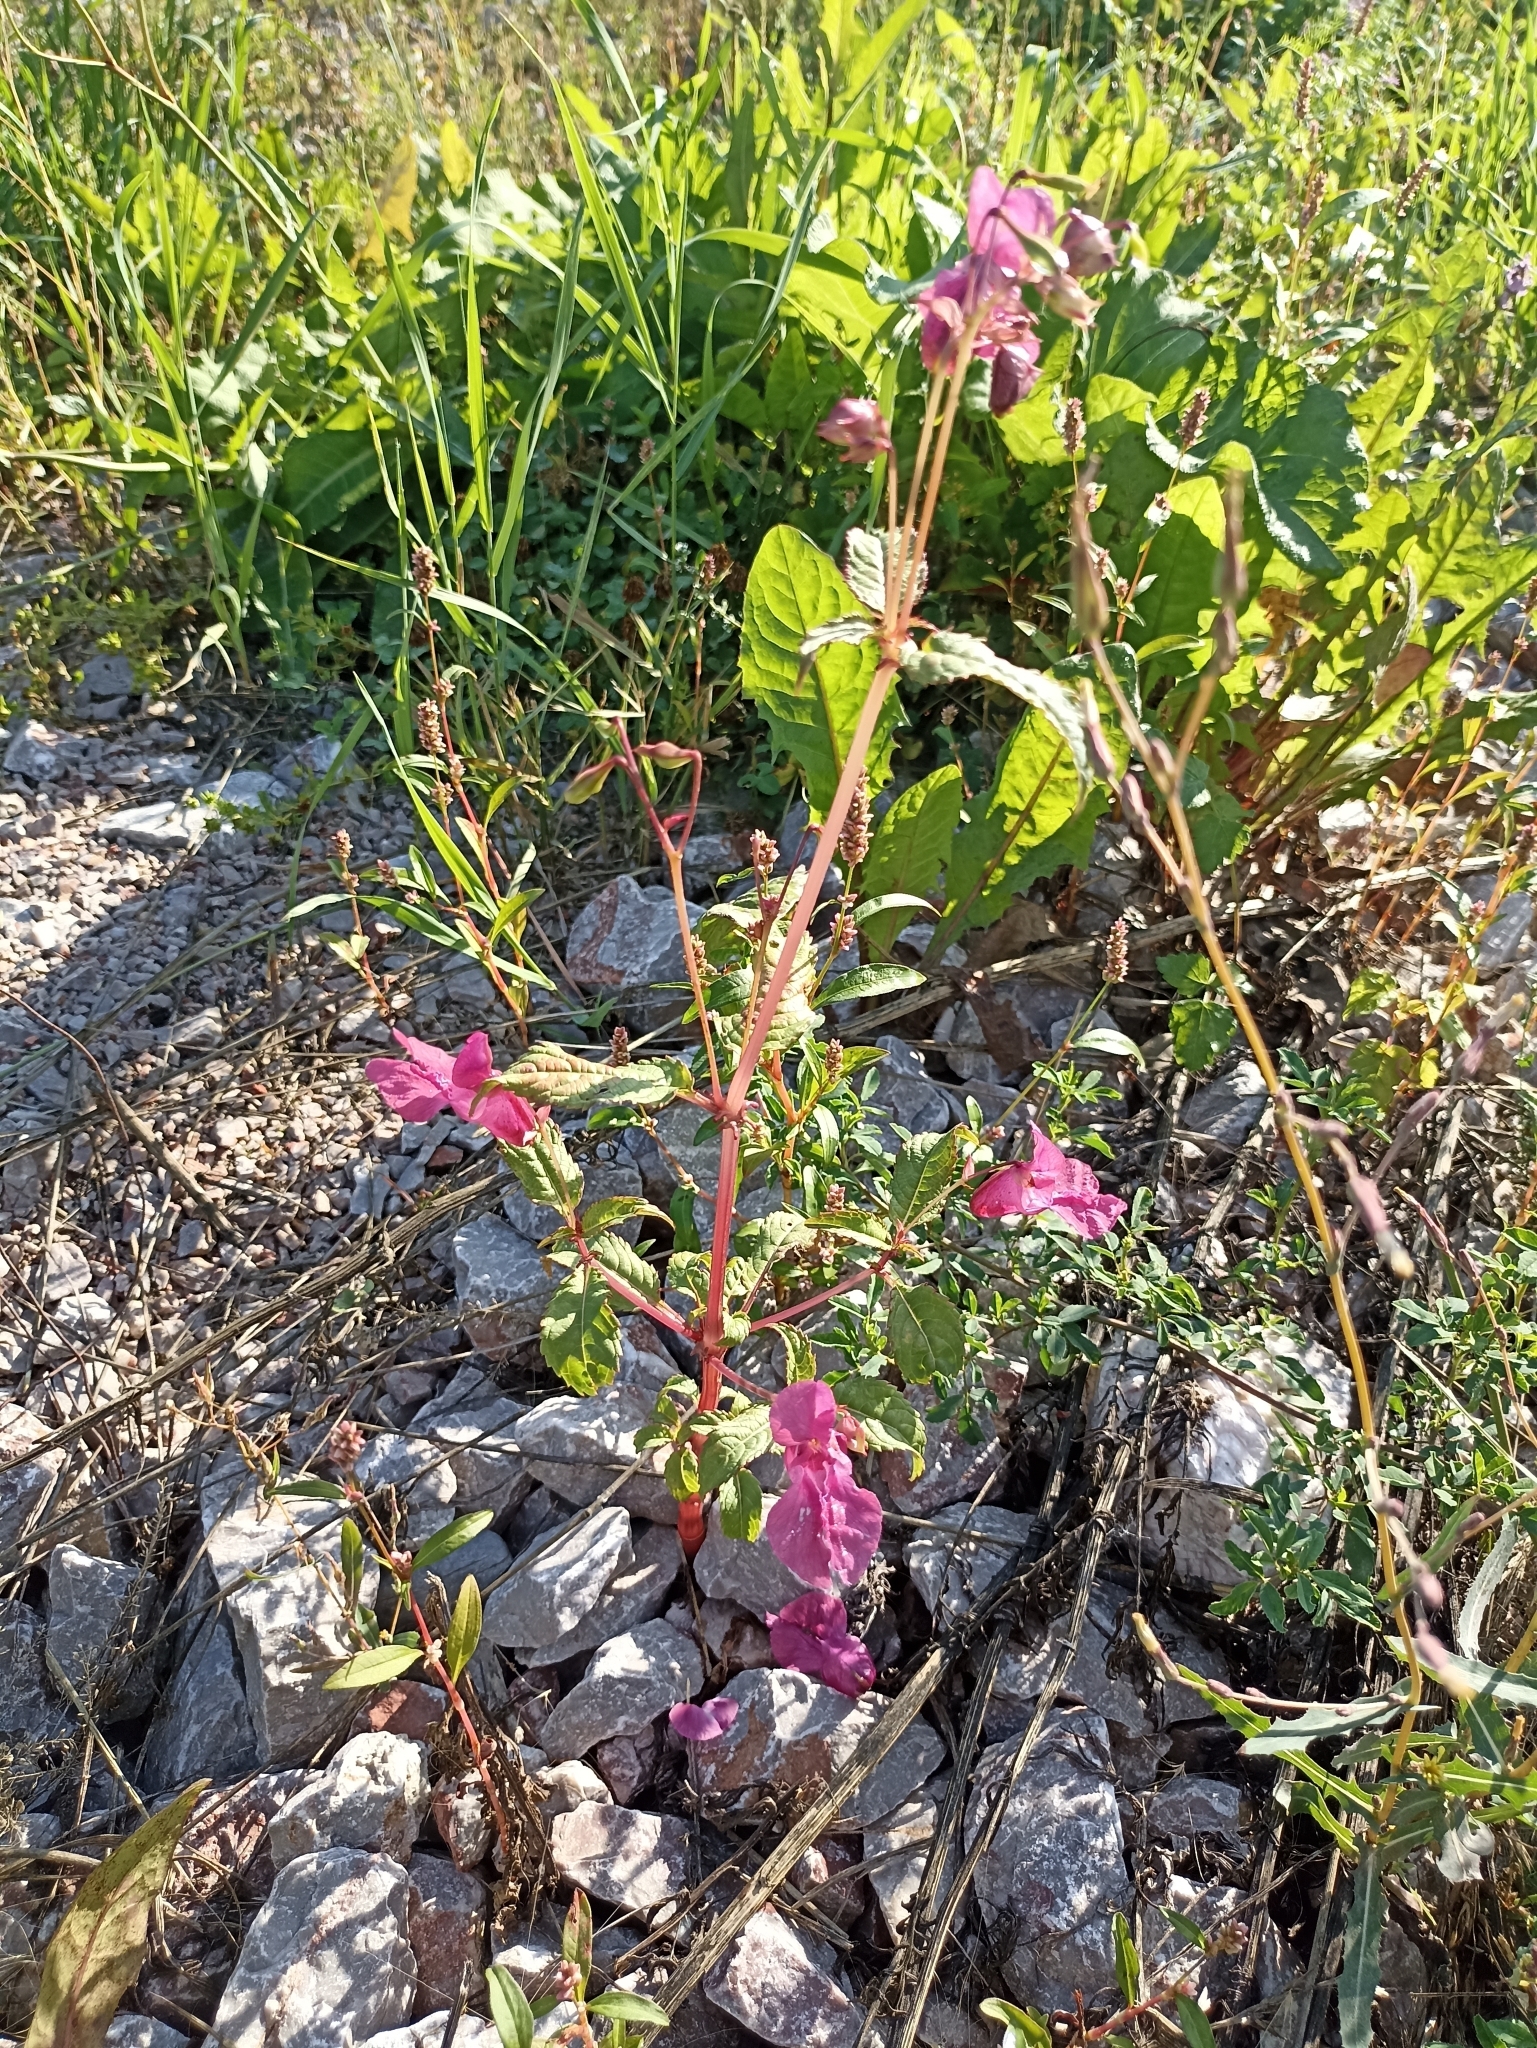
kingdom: Plantae
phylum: Tracheophyta
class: Magnoliopsida
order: Ericales
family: Balsaminaceae
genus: Impatiens
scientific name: Impatiens glandulifera
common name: Himalayan balsam
